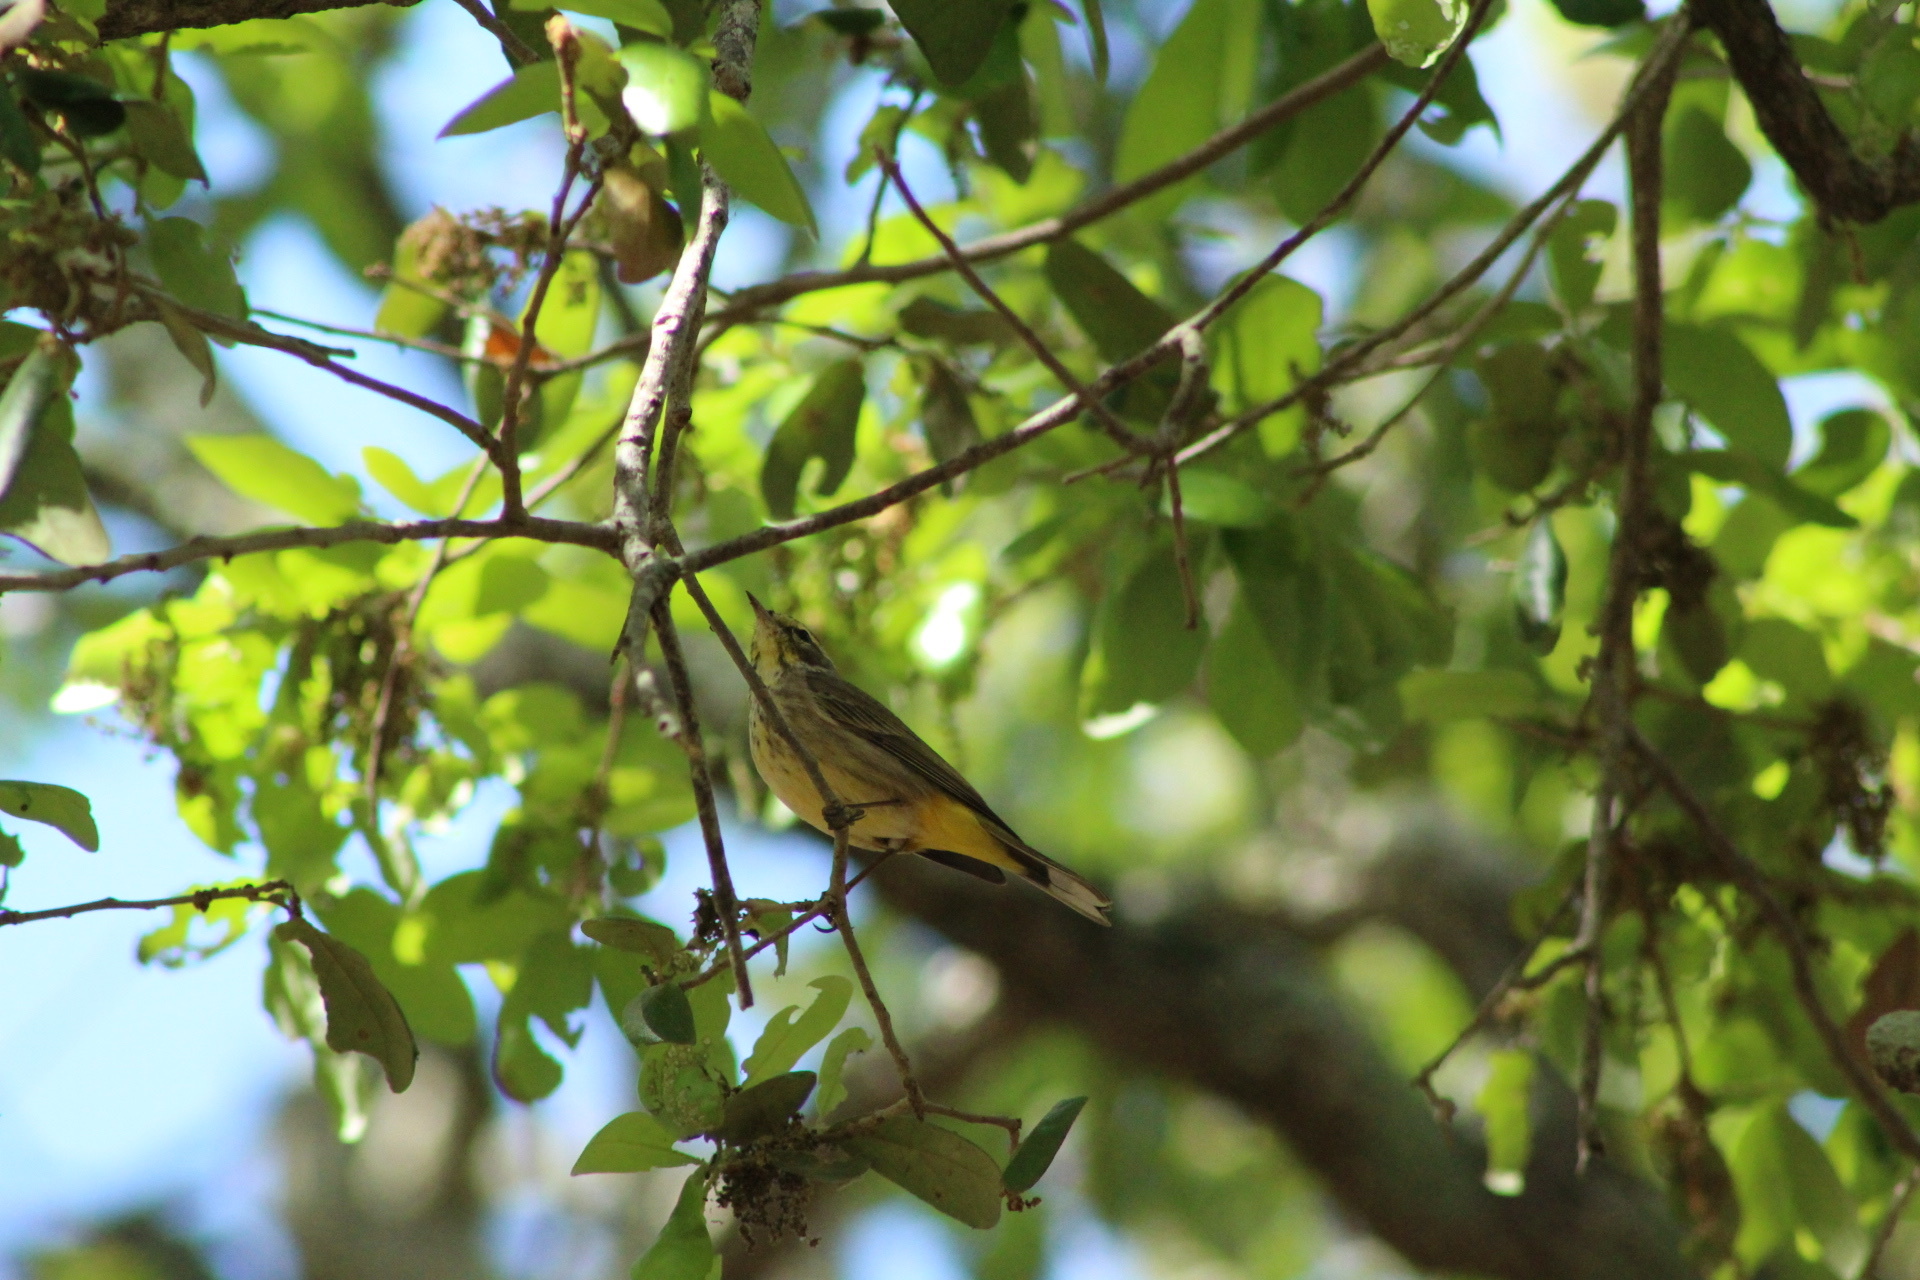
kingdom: Animalia
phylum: Chordata
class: Aves
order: Passeriformes
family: Parulidae
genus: Setophaga
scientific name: Setophaga palmarum
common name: Palm warbler
